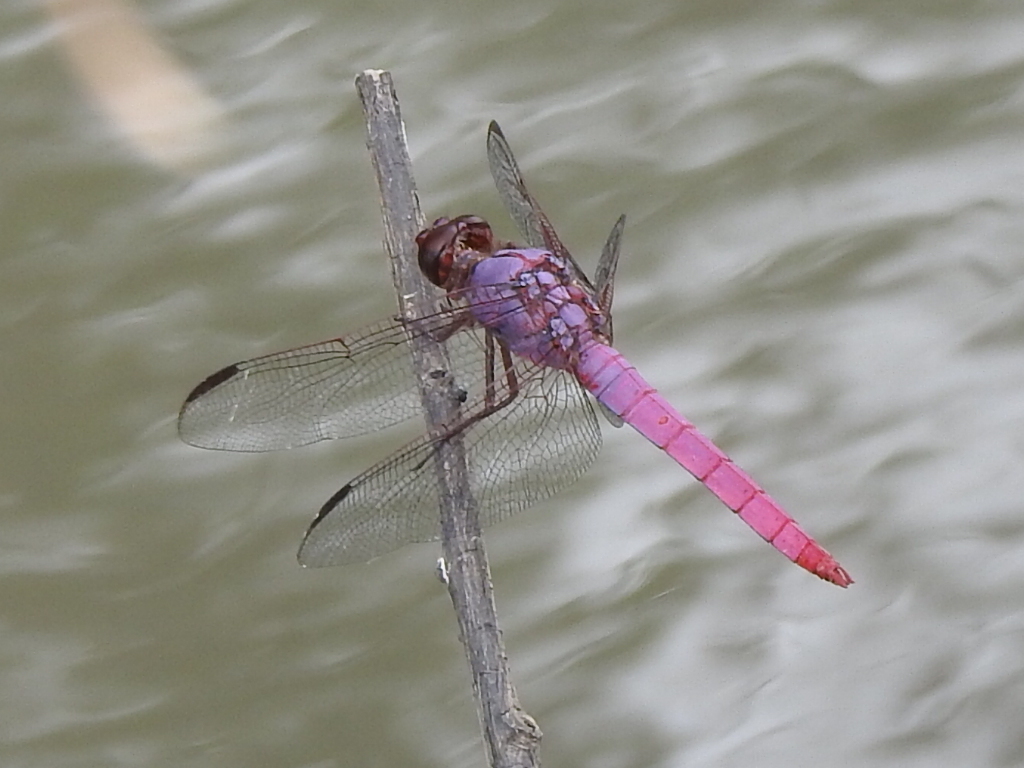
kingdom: Animalia
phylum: Arthropoda
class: Insecta
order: Odonata
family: Libellulidae
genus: Orthemis
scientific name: Orthemis ferruginea
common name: Roseate skimmer
